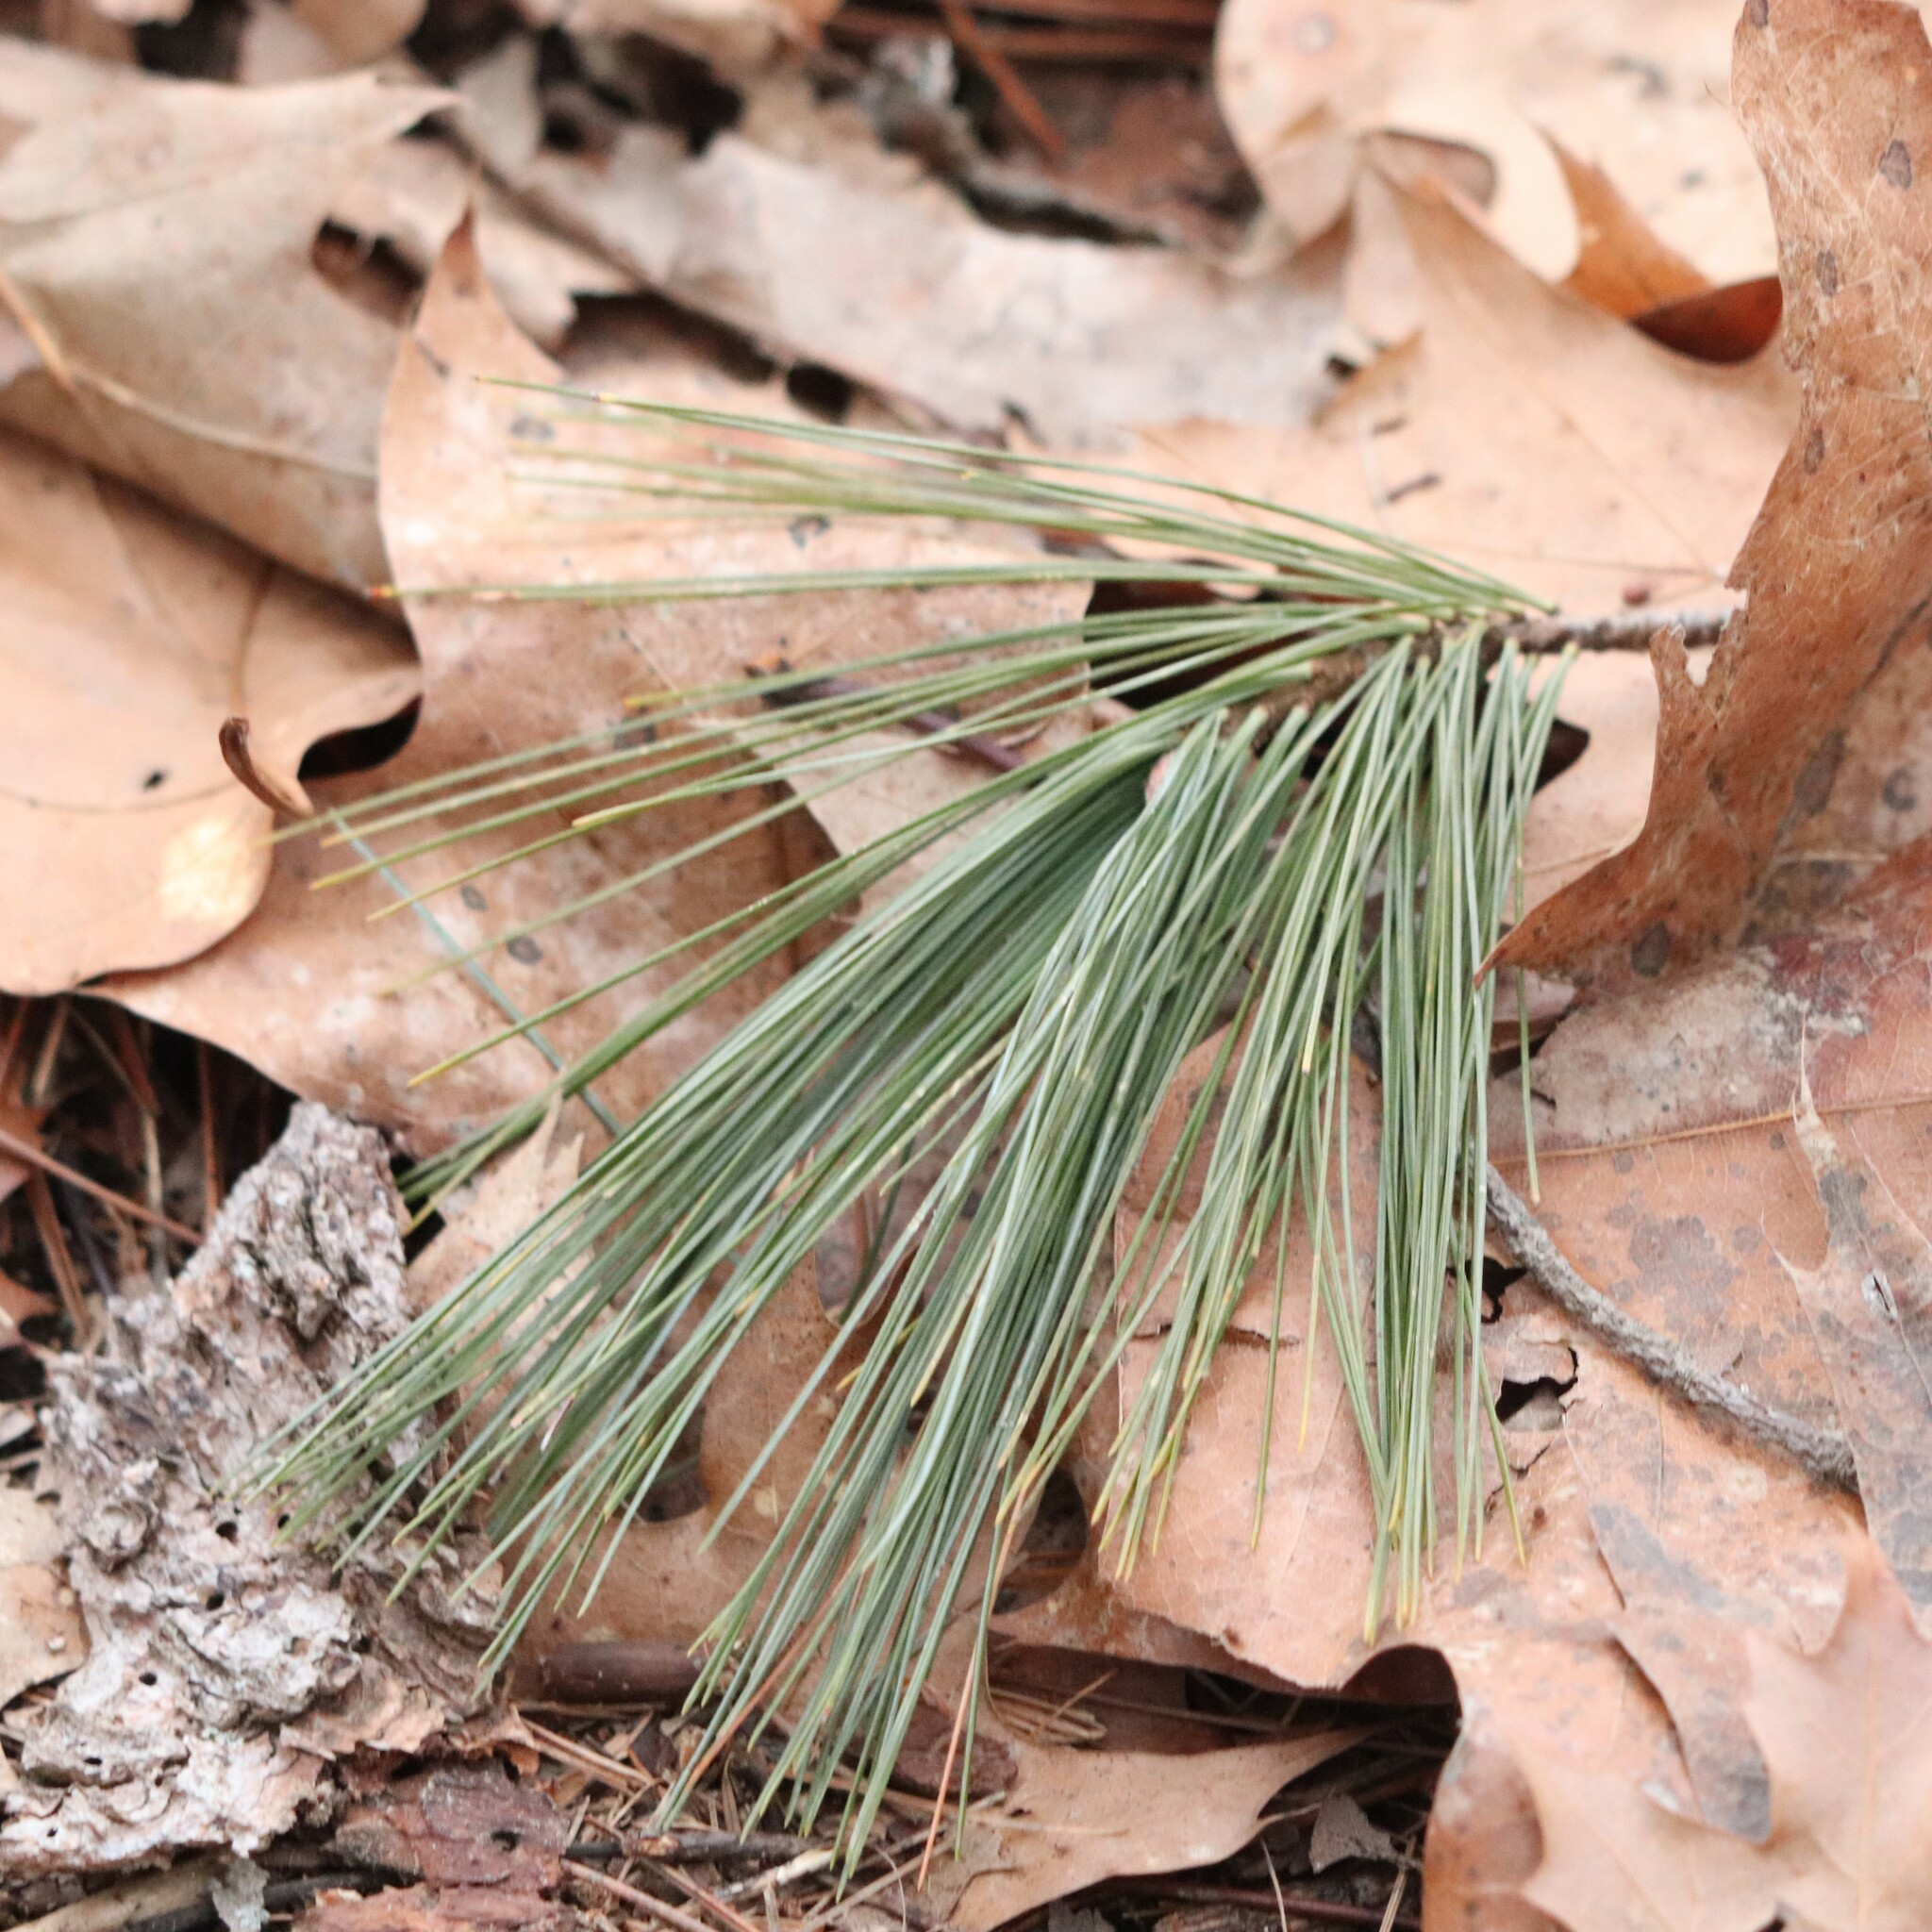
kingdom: Plantae
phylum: Tracheophyta
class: Pinopsida
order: Pinales
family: Pinaceae
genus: Pinus
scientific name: Pinus strobus
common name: Weymouth pine
